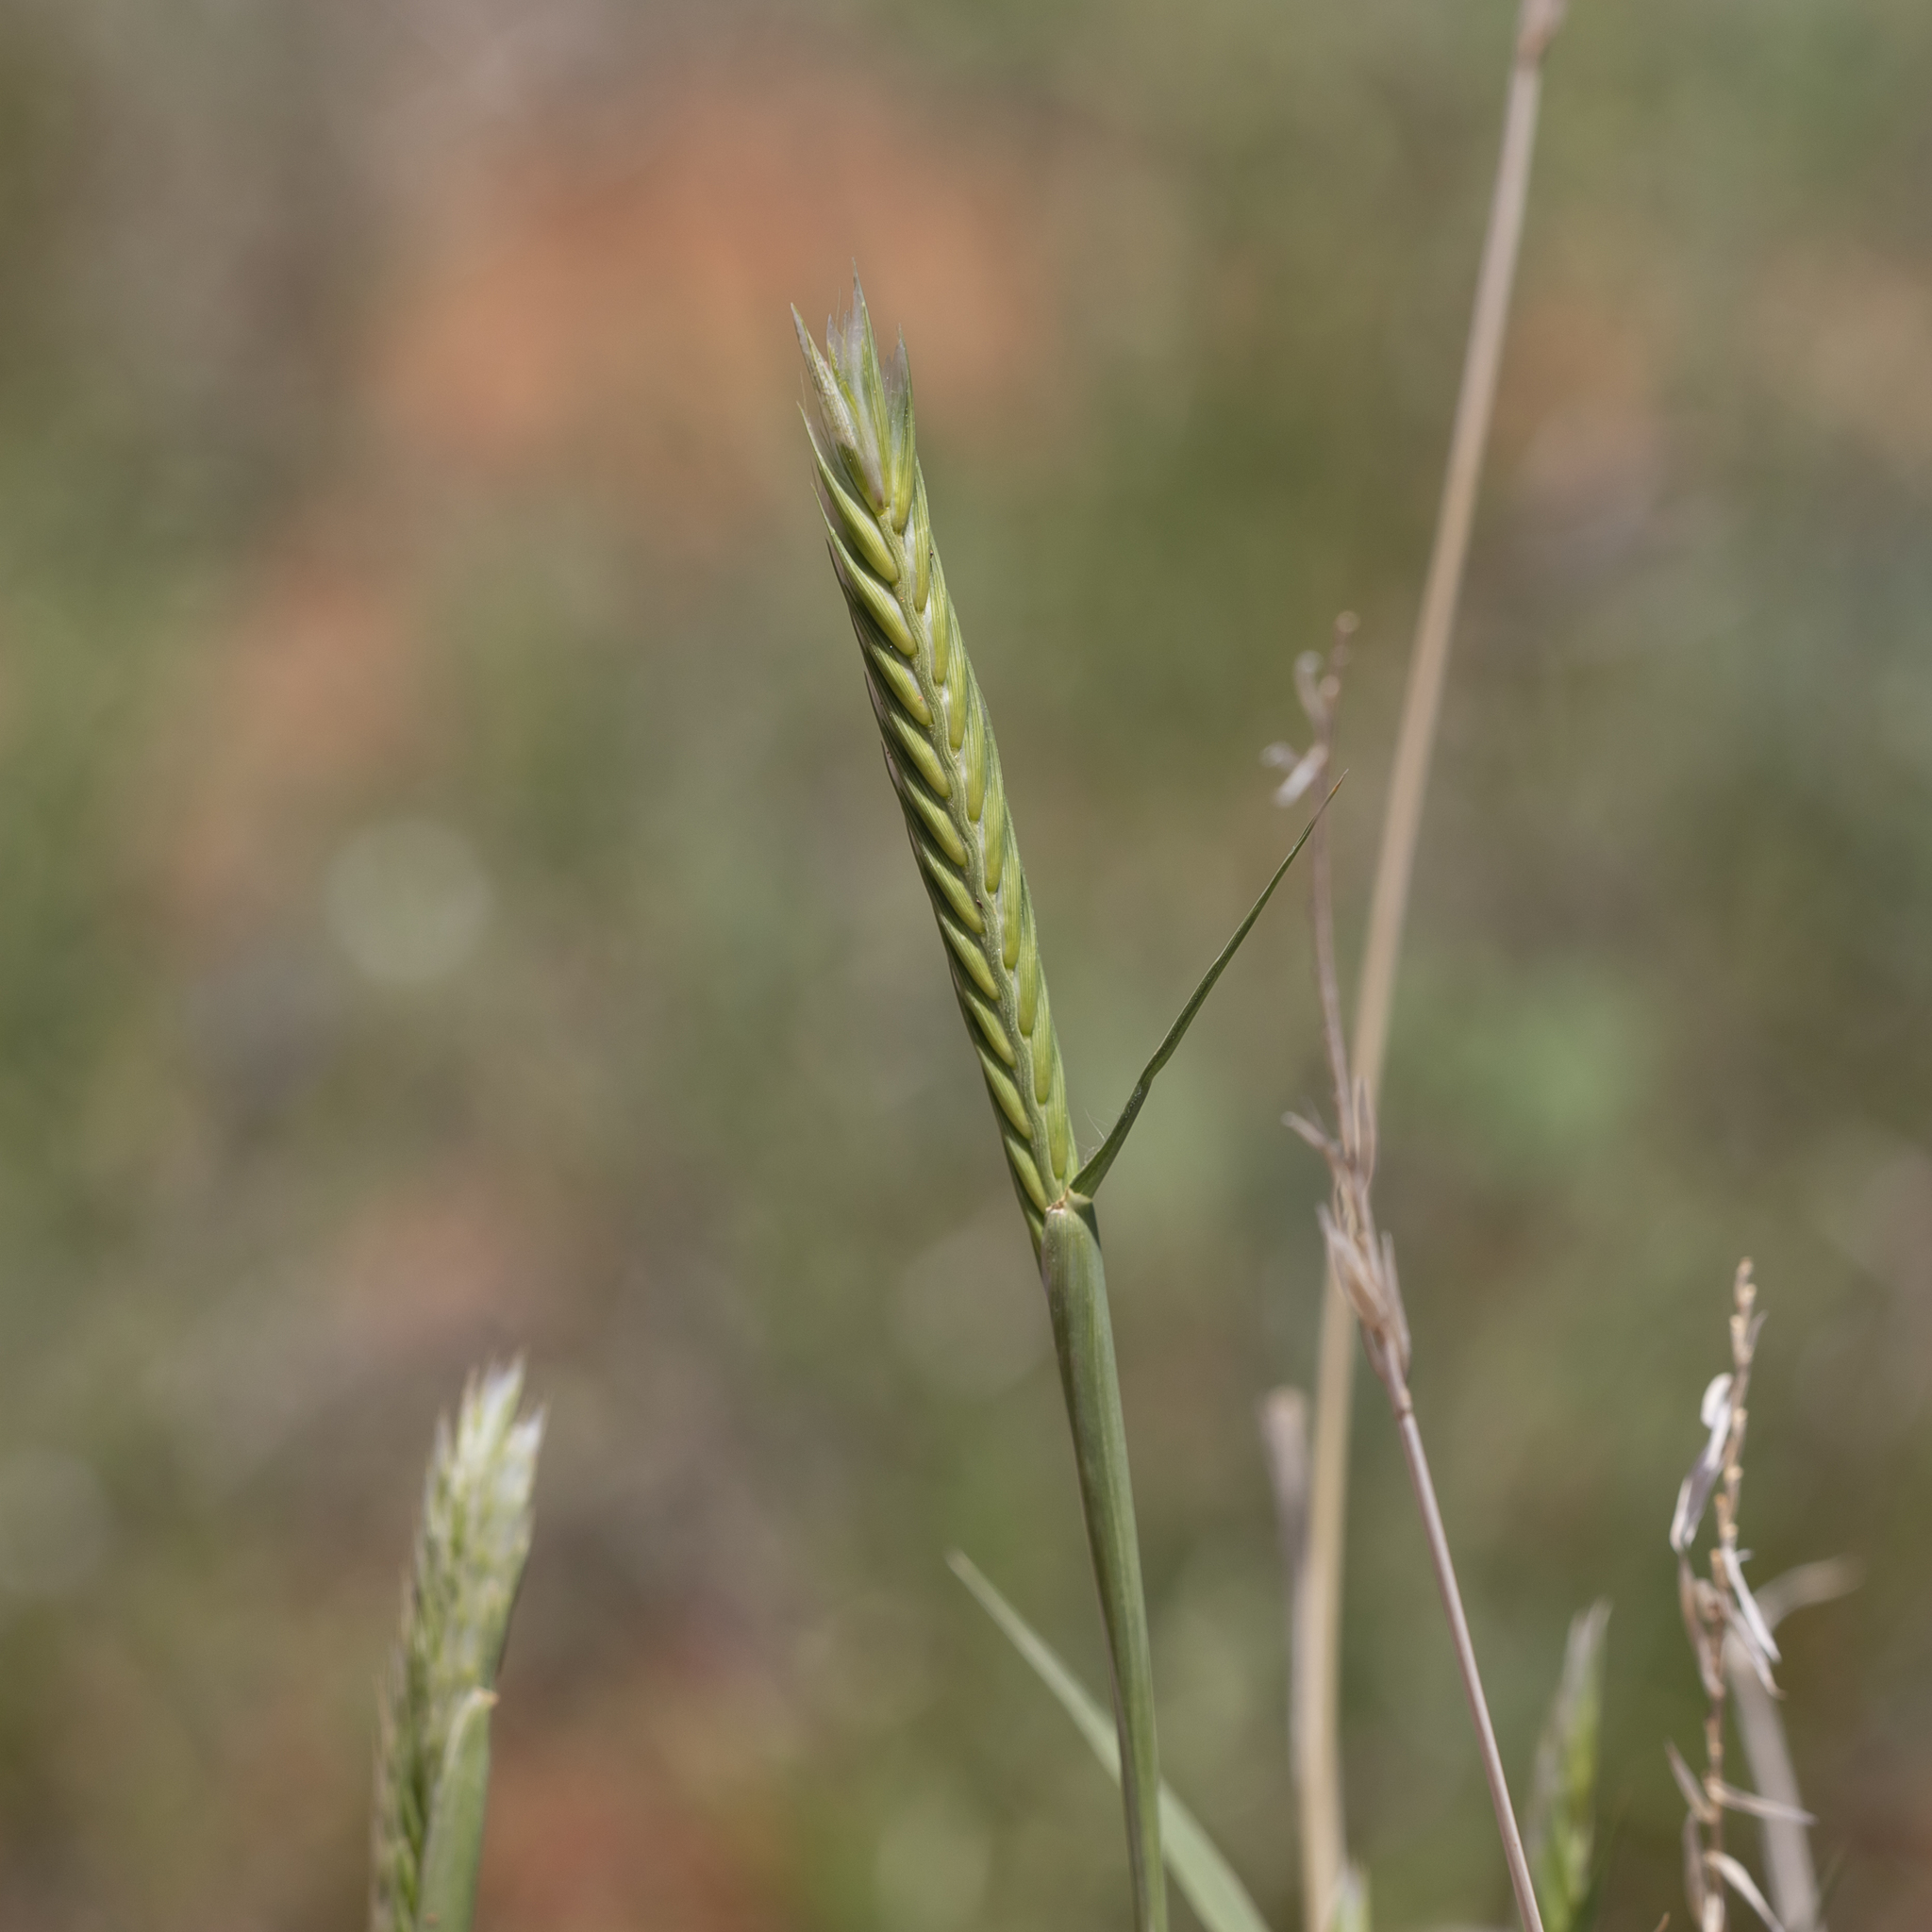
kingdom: Plantae
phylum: Tracheophyta
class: Liliopsida
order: Poales
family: Poaceae
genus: Astrebla
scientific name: Astrebla pectinata
